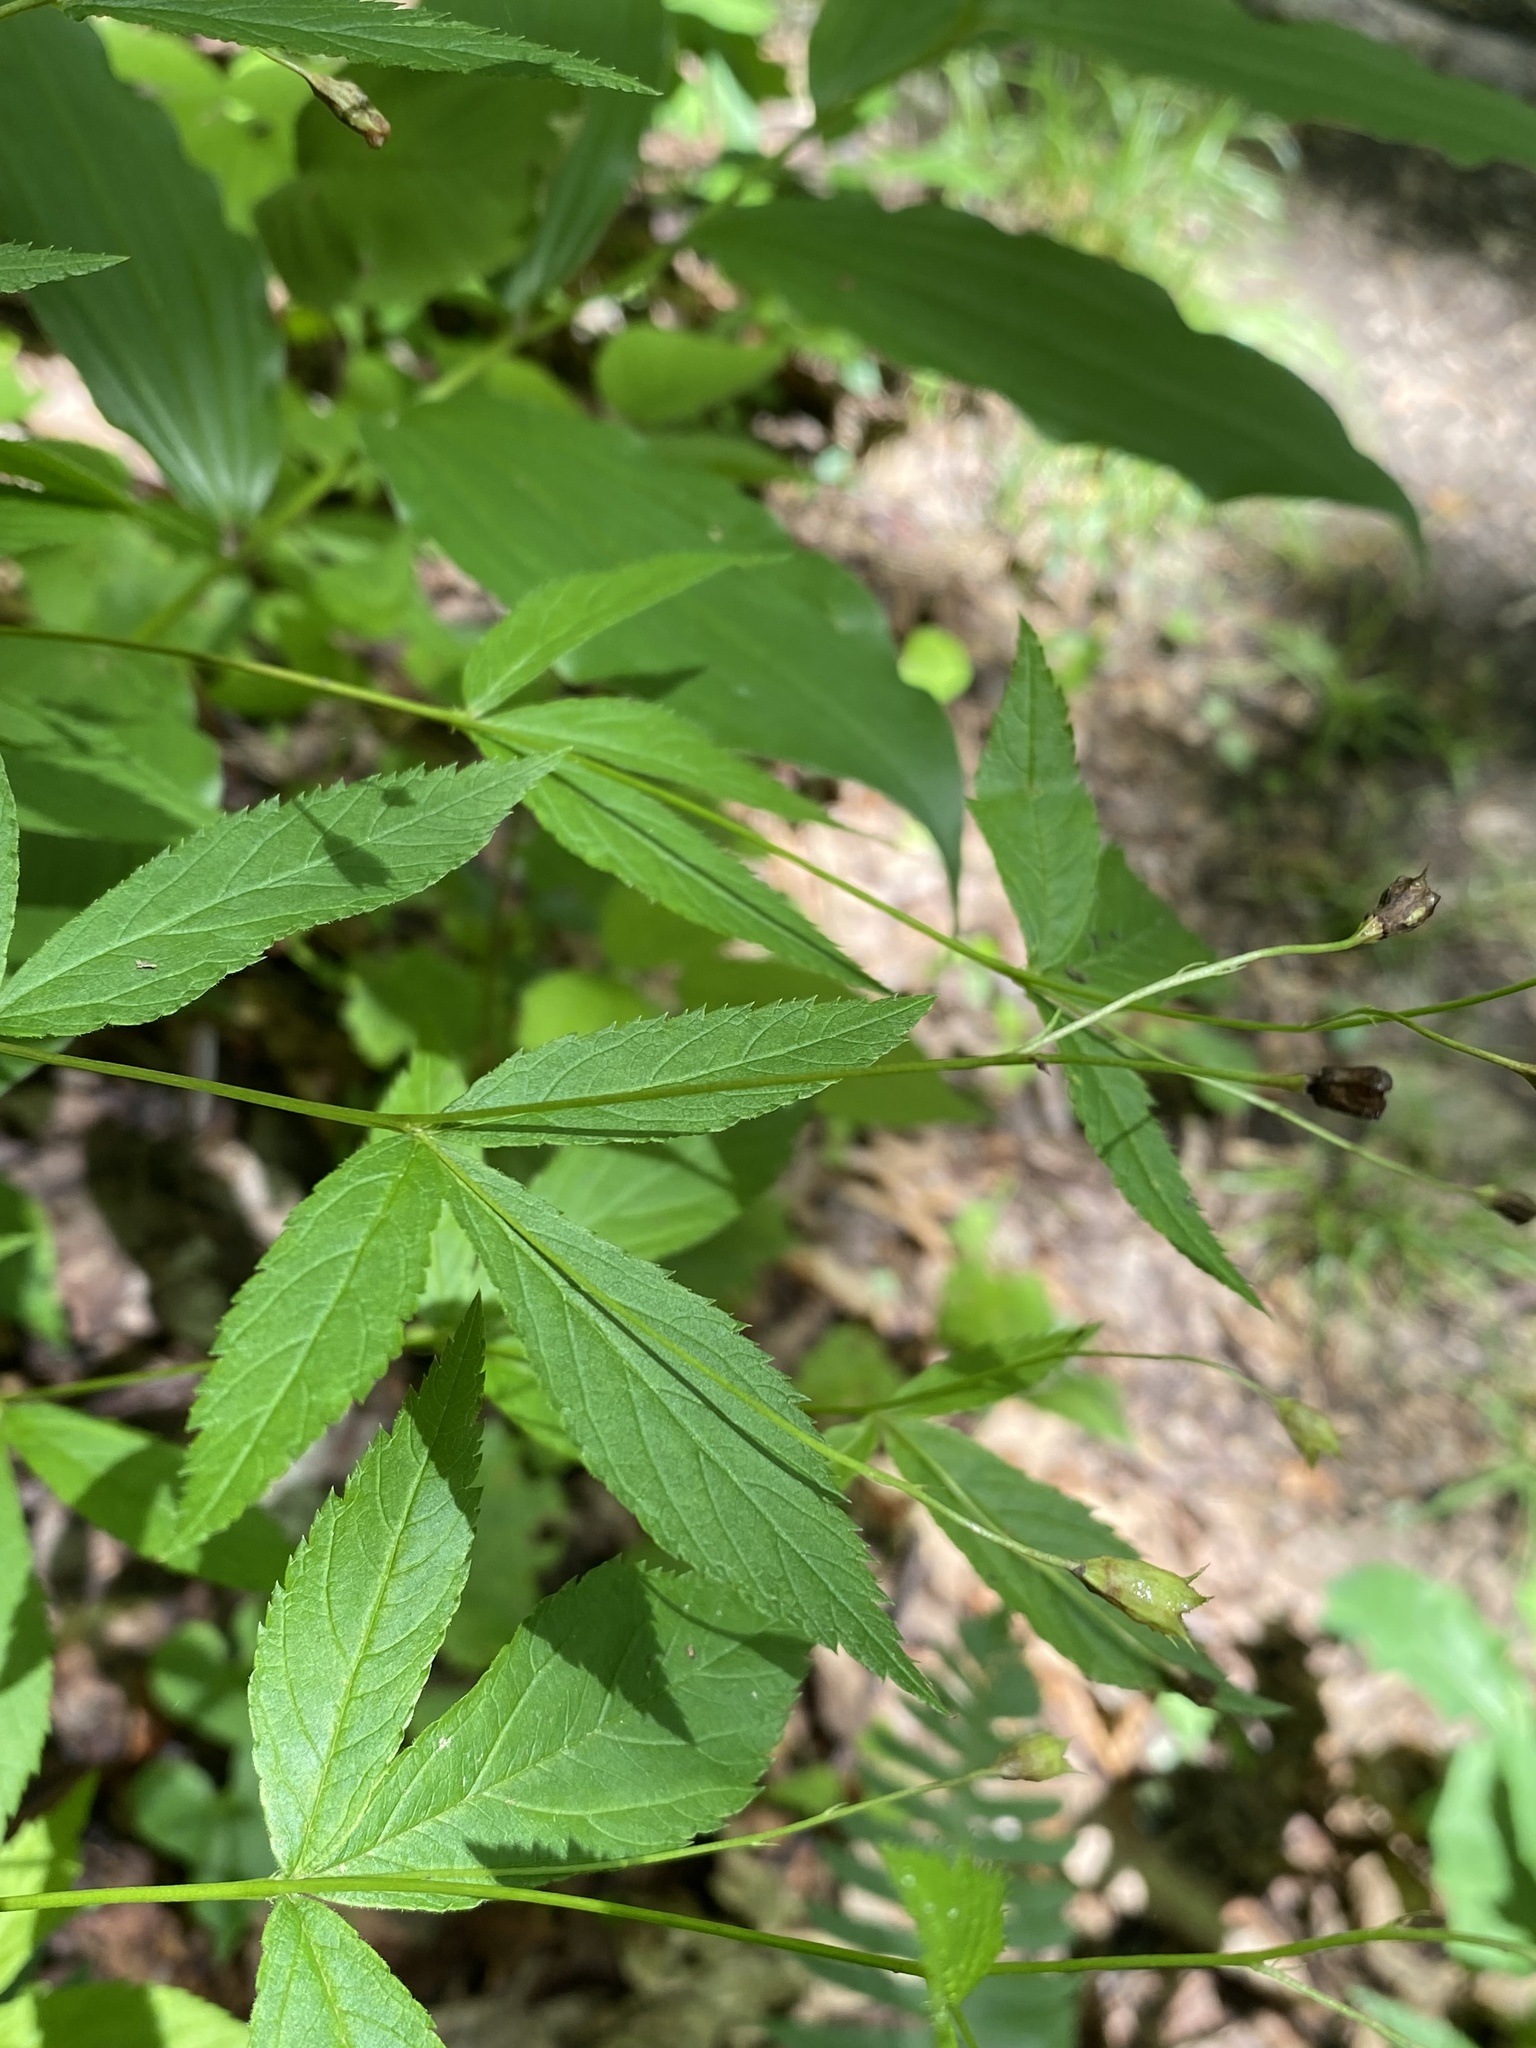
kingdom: Plantae
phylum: Tracheophyta
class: Magnoliopsida
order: Rosales
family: Rosaceae
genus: Gillenia
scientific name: Gillenia trifoliata
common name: Bowman's-root
